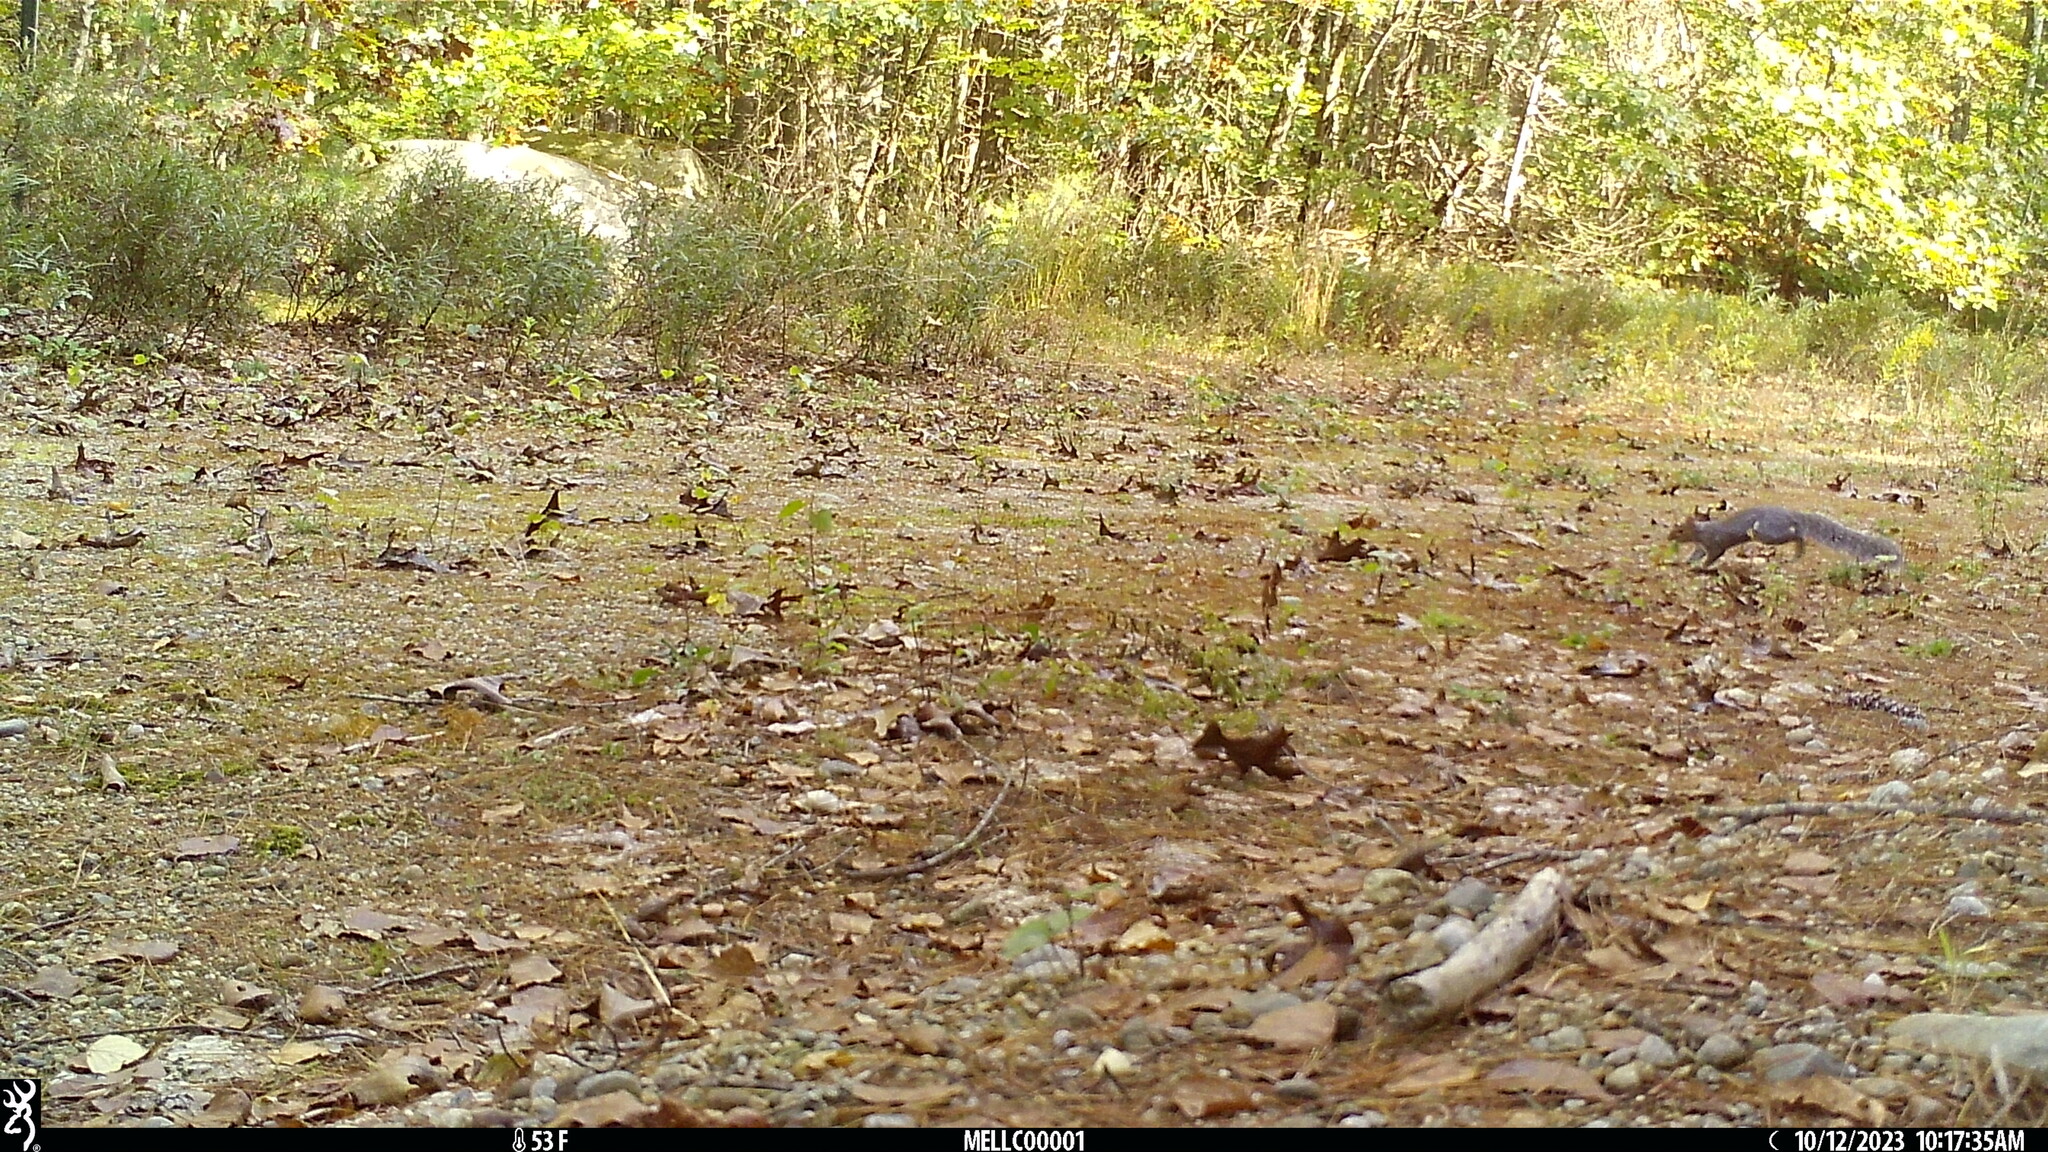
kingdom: Animalia
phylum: Chordata
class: Mammalia
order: Rodentia
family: Sciuridae
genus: Sciurus
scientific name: Sciurus carolinensis
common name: Eastern gray squirrel
